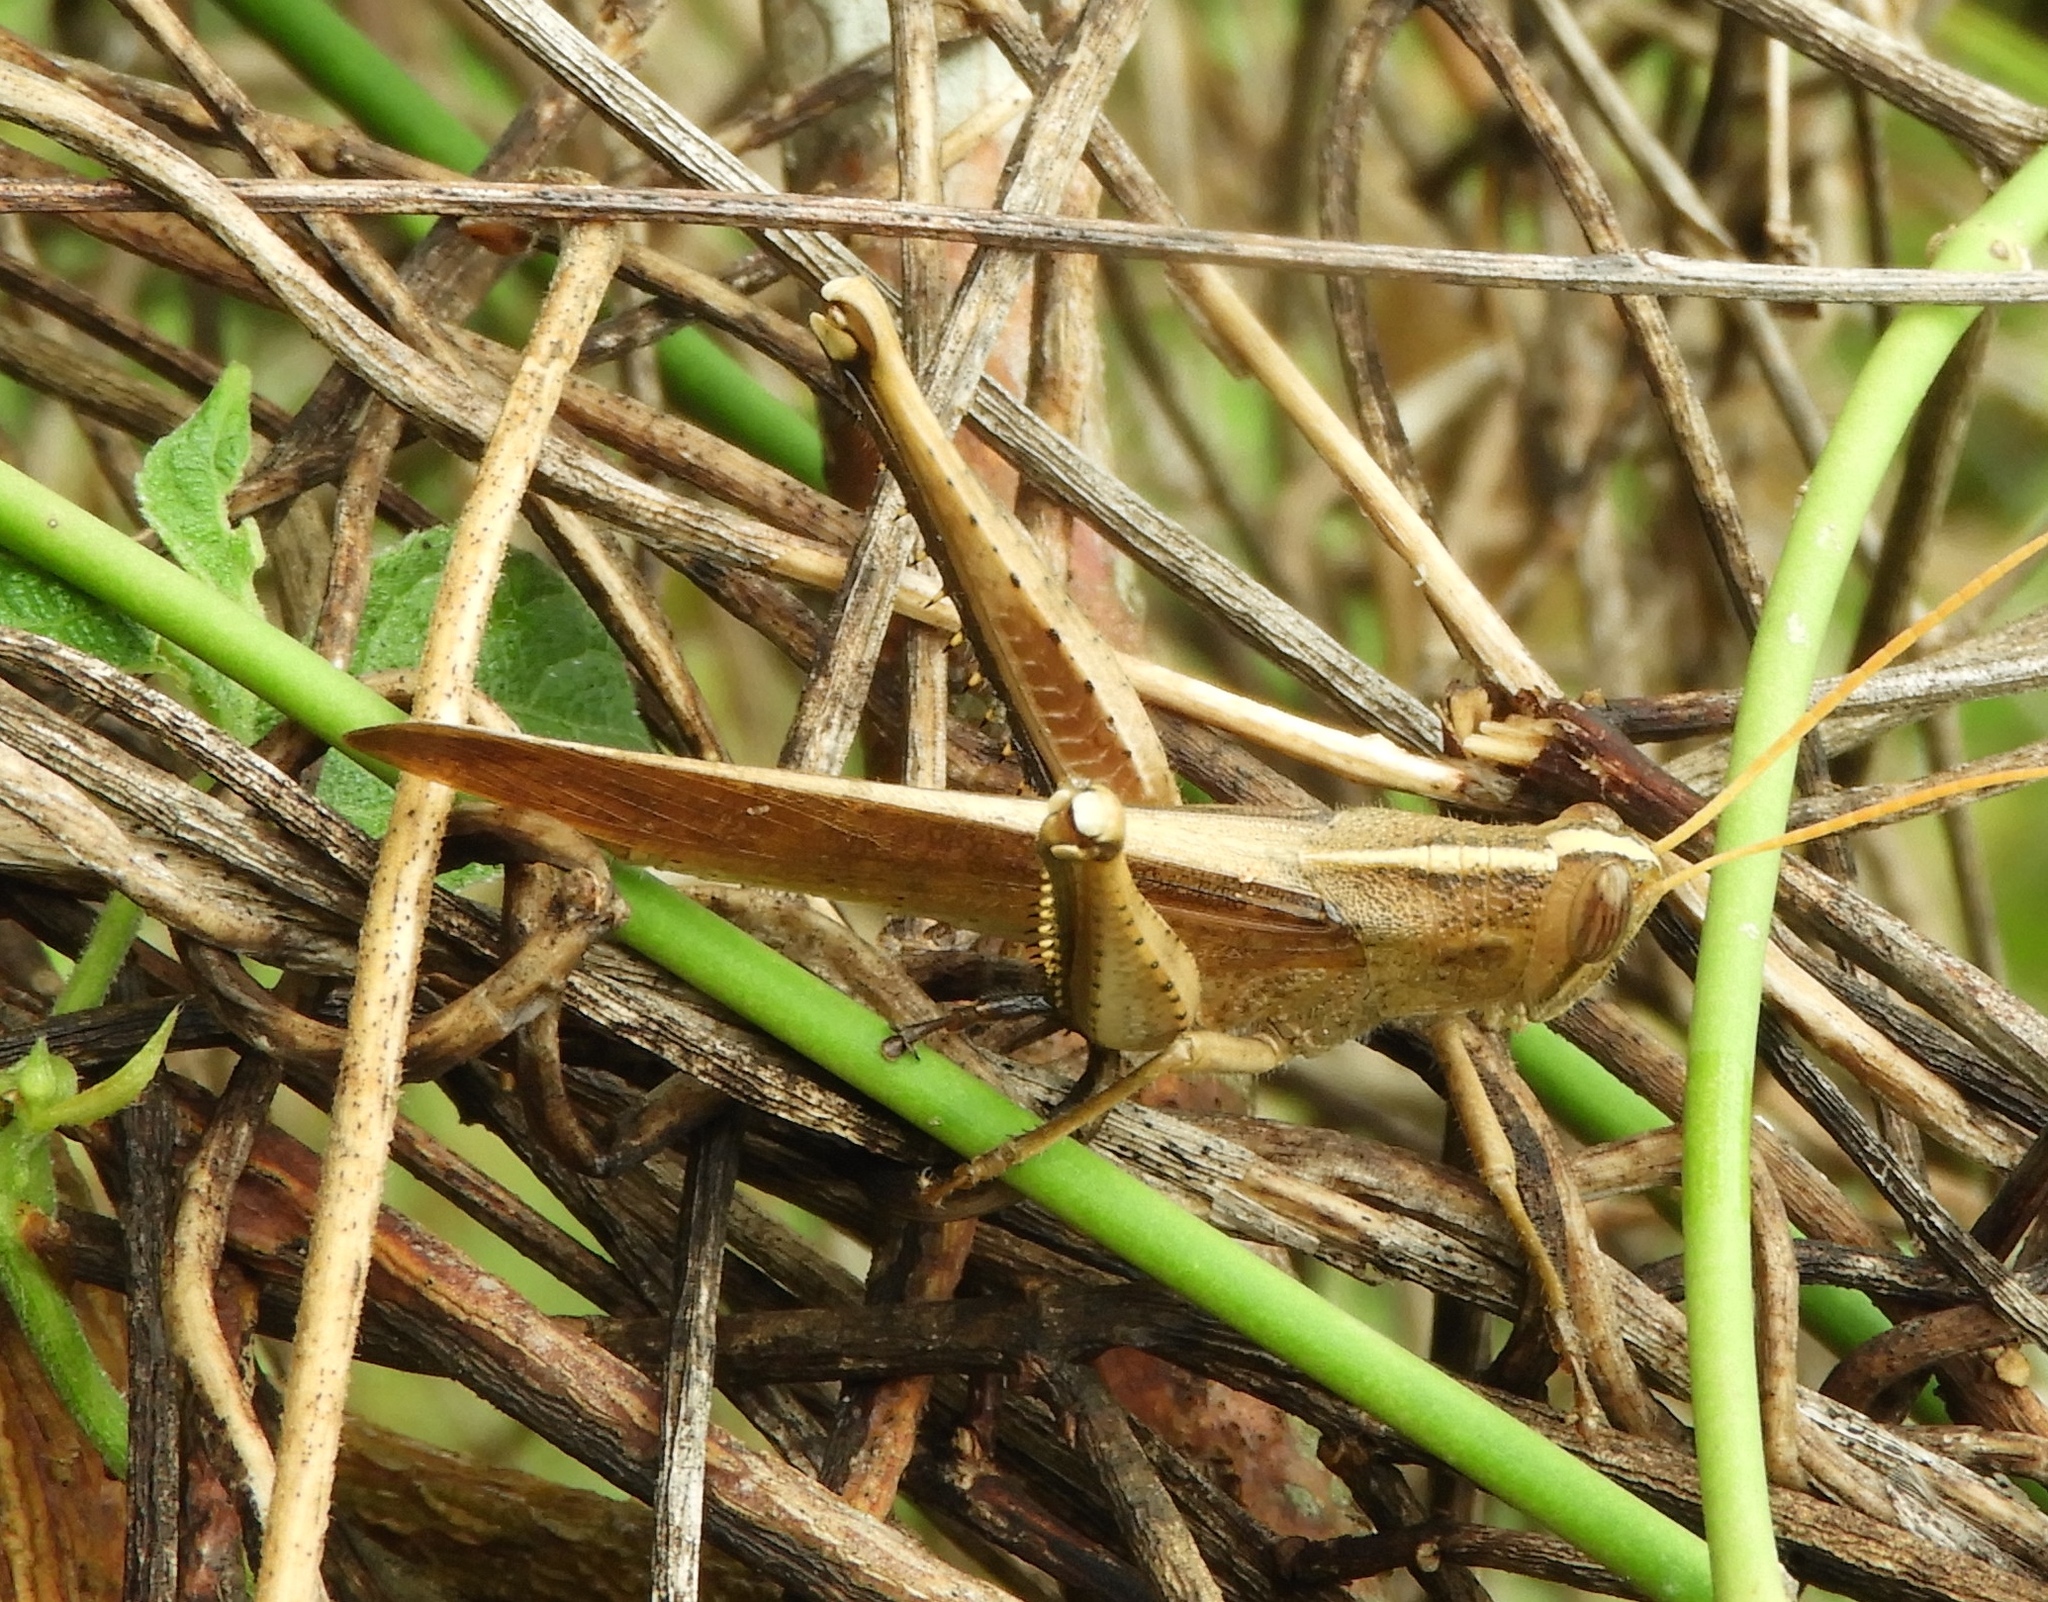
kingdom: Animalia
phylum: Arthropoda
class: Insecta
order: Orthoptera
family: Acrididae
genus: Schistocerca
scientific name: Schistocerca camerata
